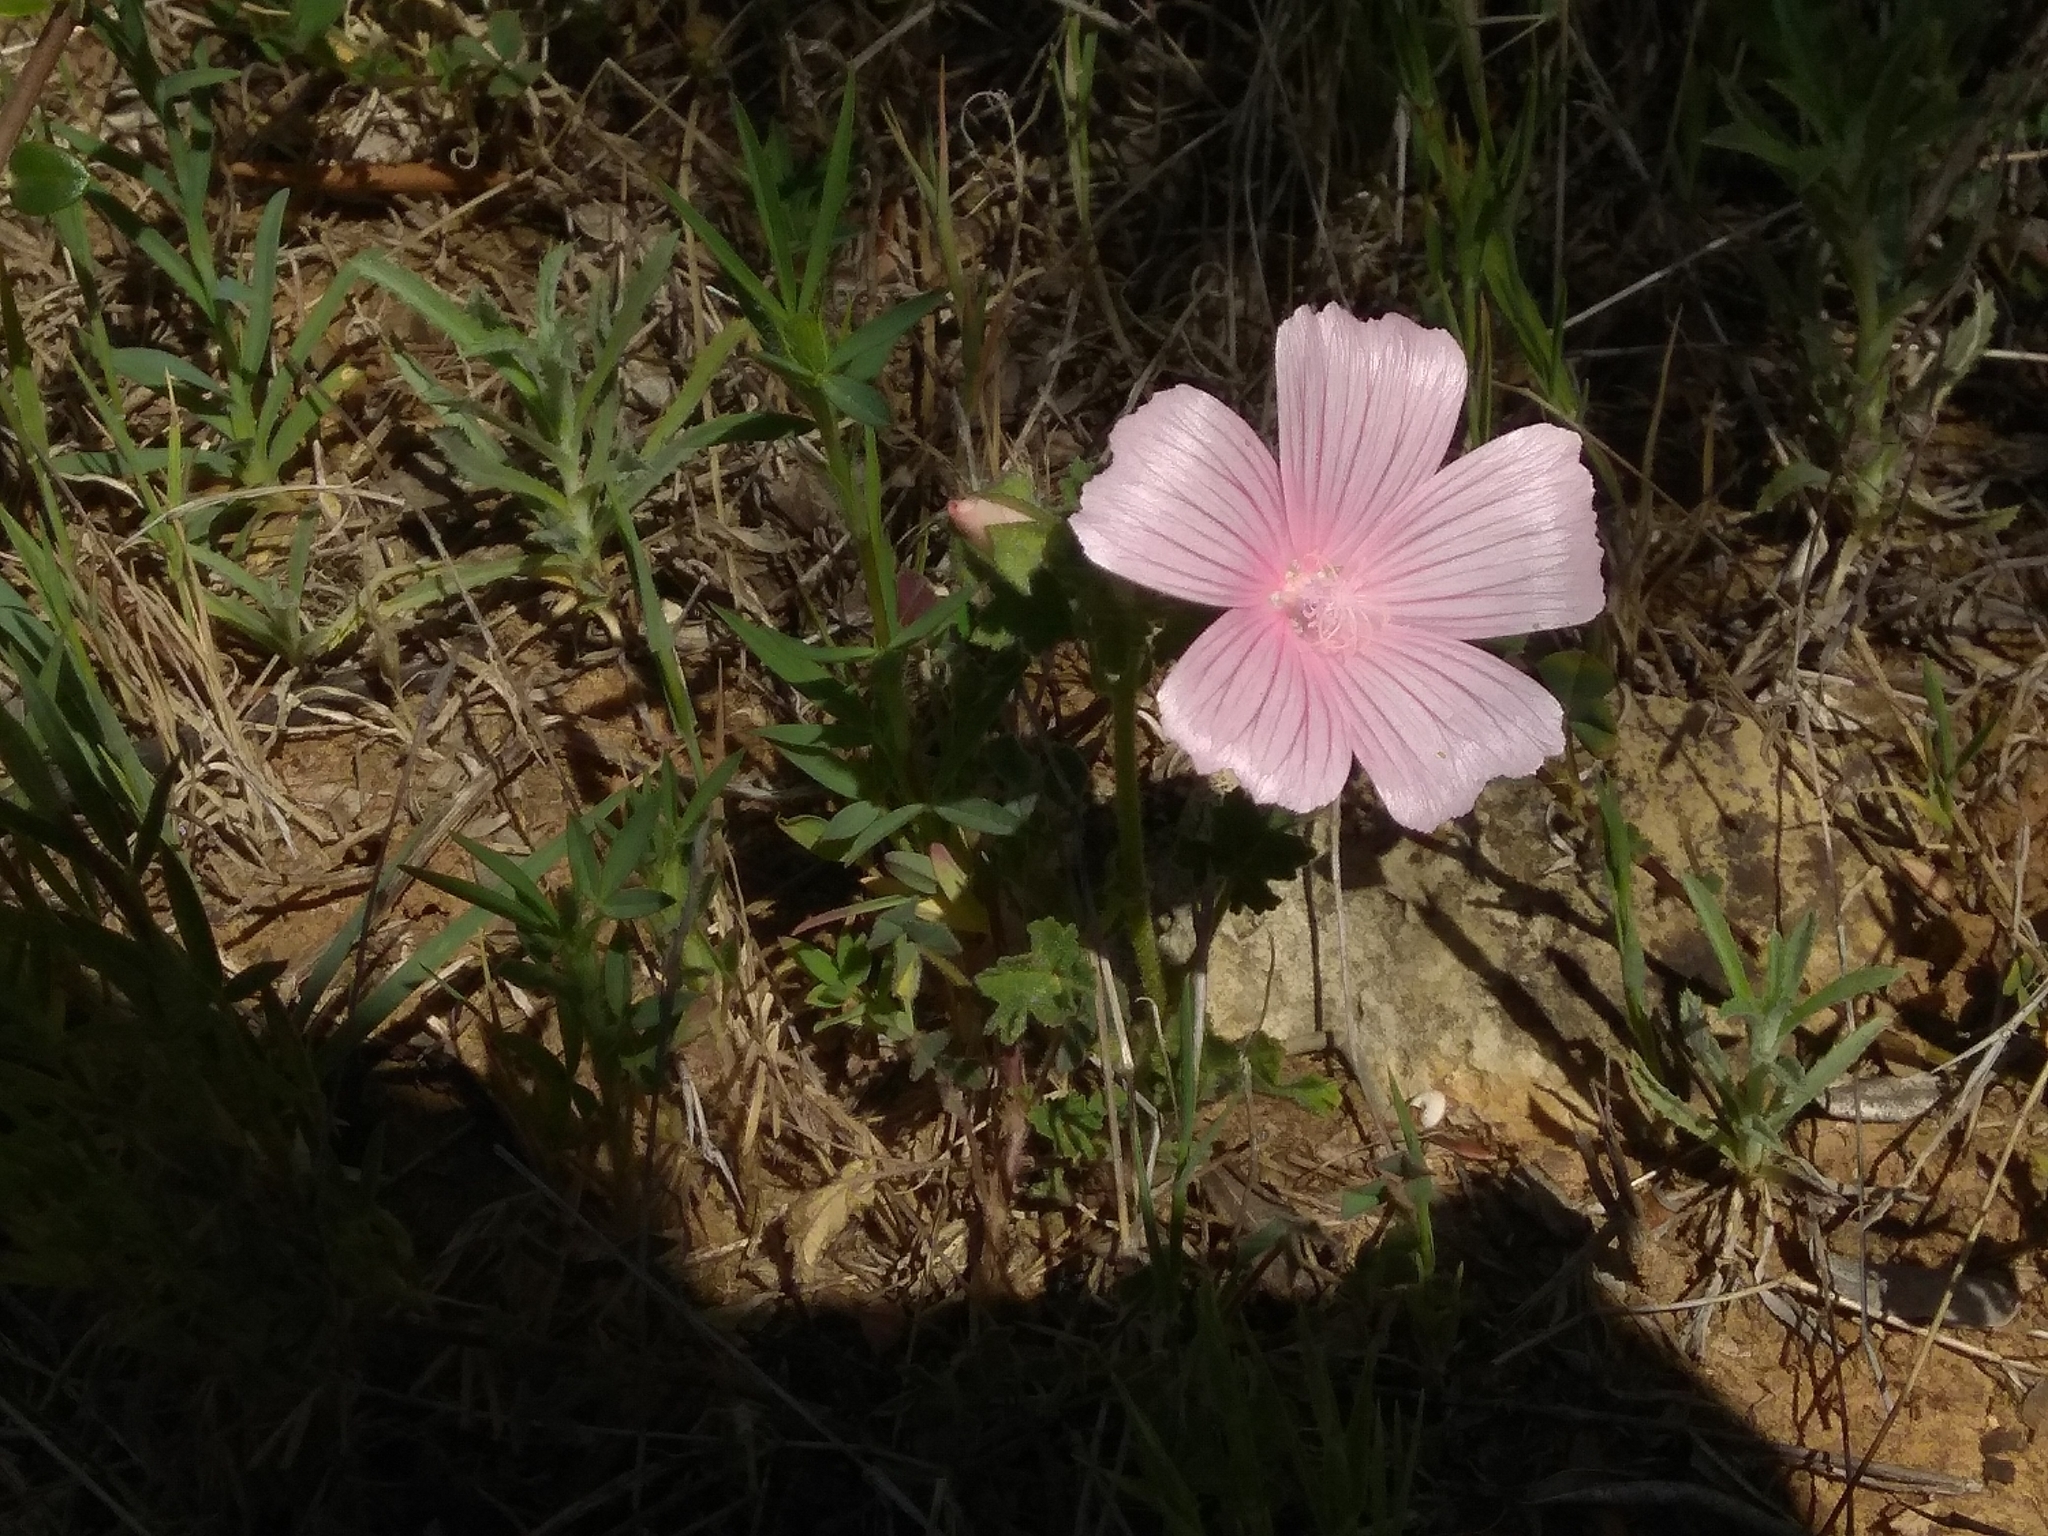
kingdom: Plantae
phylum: Tracheophyta
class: Magnoliopsida
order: Malvales
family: Malvaceae
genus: Malva
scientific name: Malva hispanica
